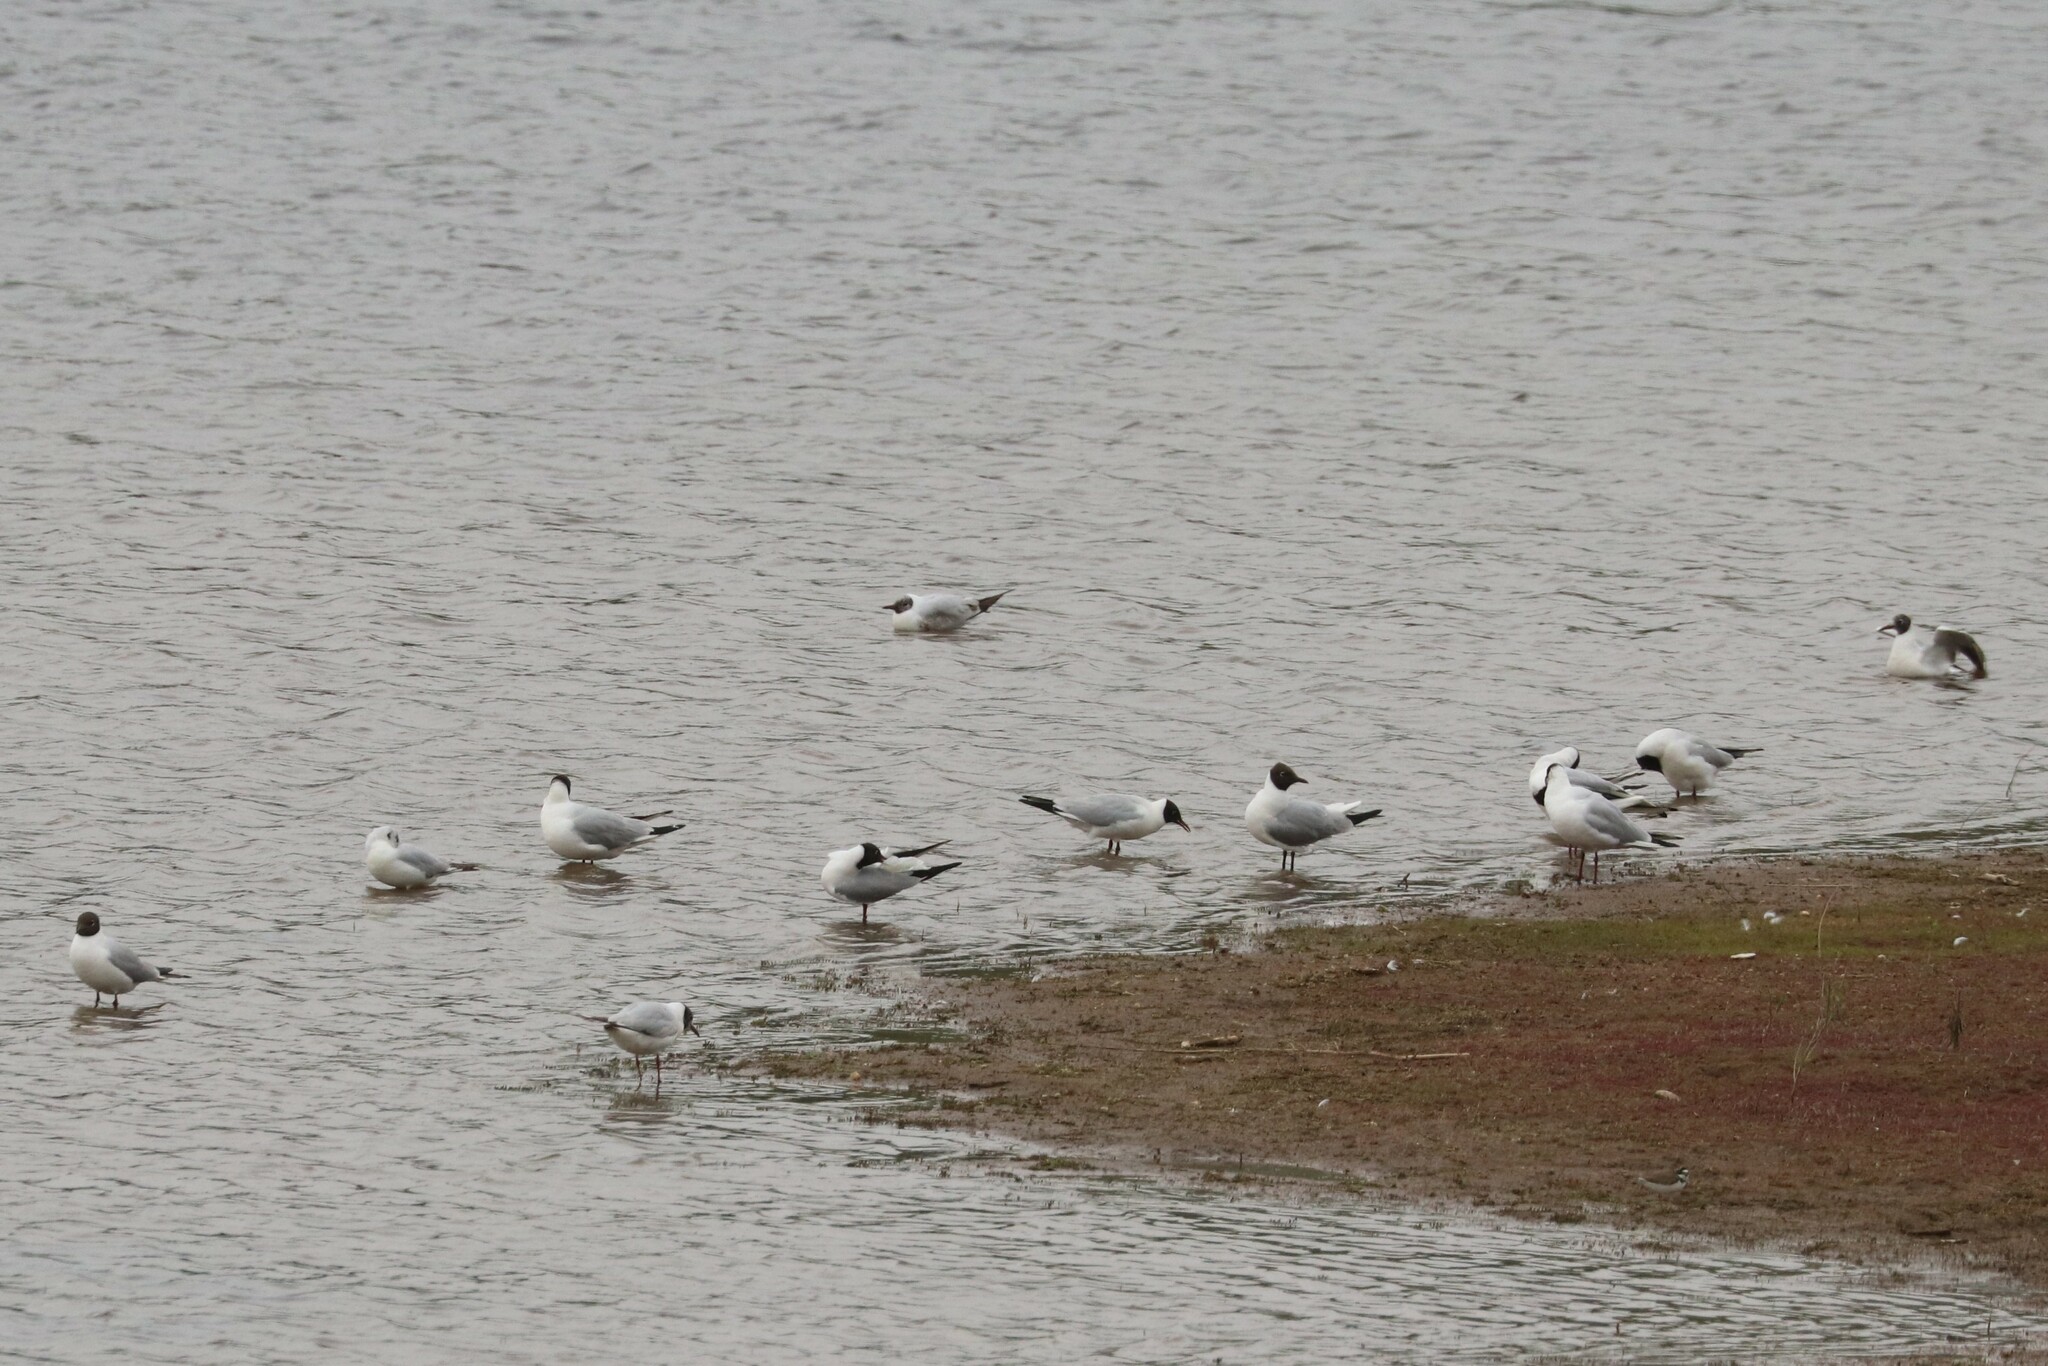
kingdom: Animalia
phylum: Chordata
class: Aves
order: Charadriiformes
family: Laridae
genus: Chroicocephalus
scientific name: Chroicocephalus ridibundus
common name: Black-headed gull
